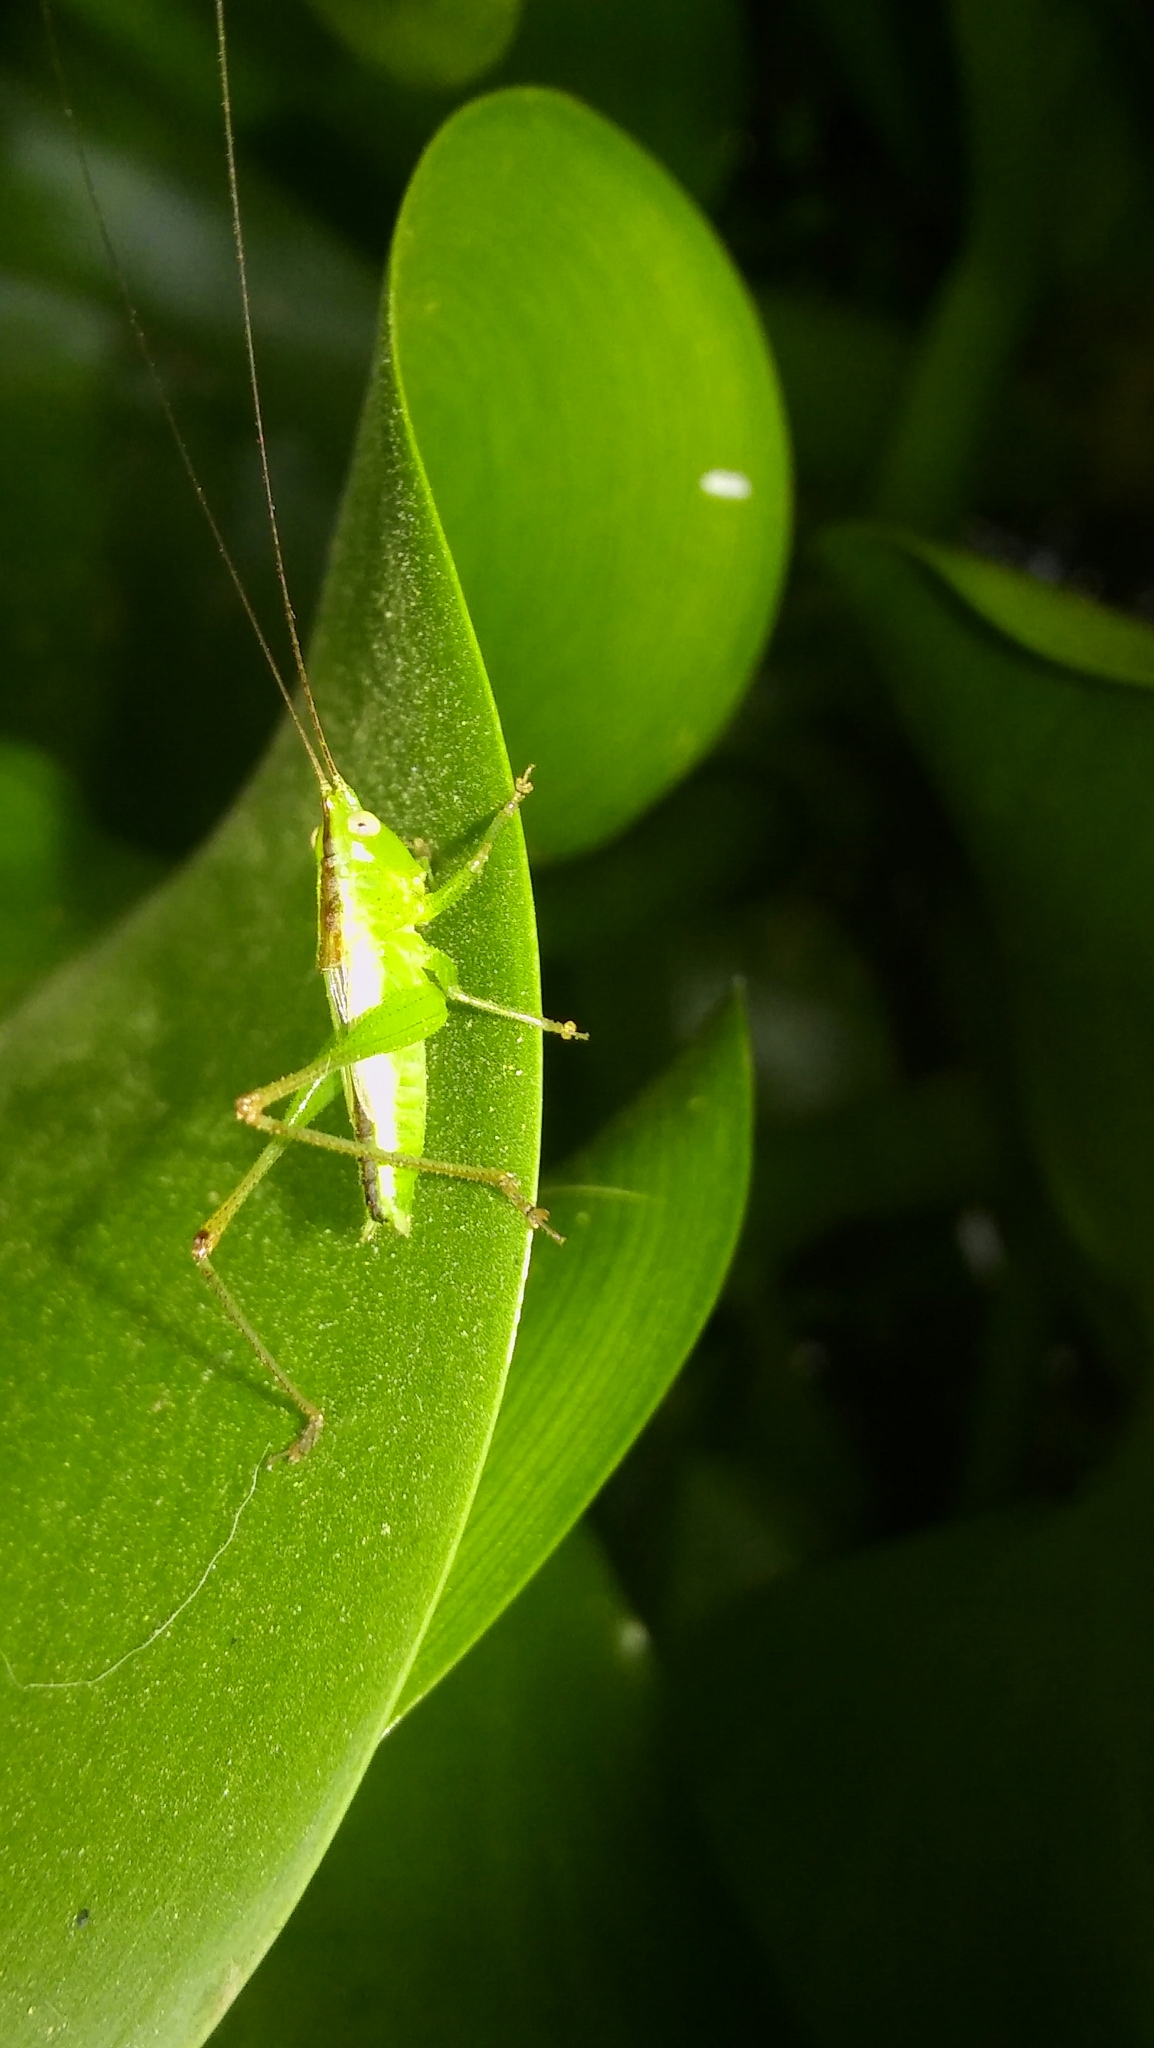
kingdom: Animalia
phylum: Arthropoda
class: Insecta
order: Orthoptera
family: Tettigoniidae
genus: Conocephalus
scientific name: Conocephalus longipes
